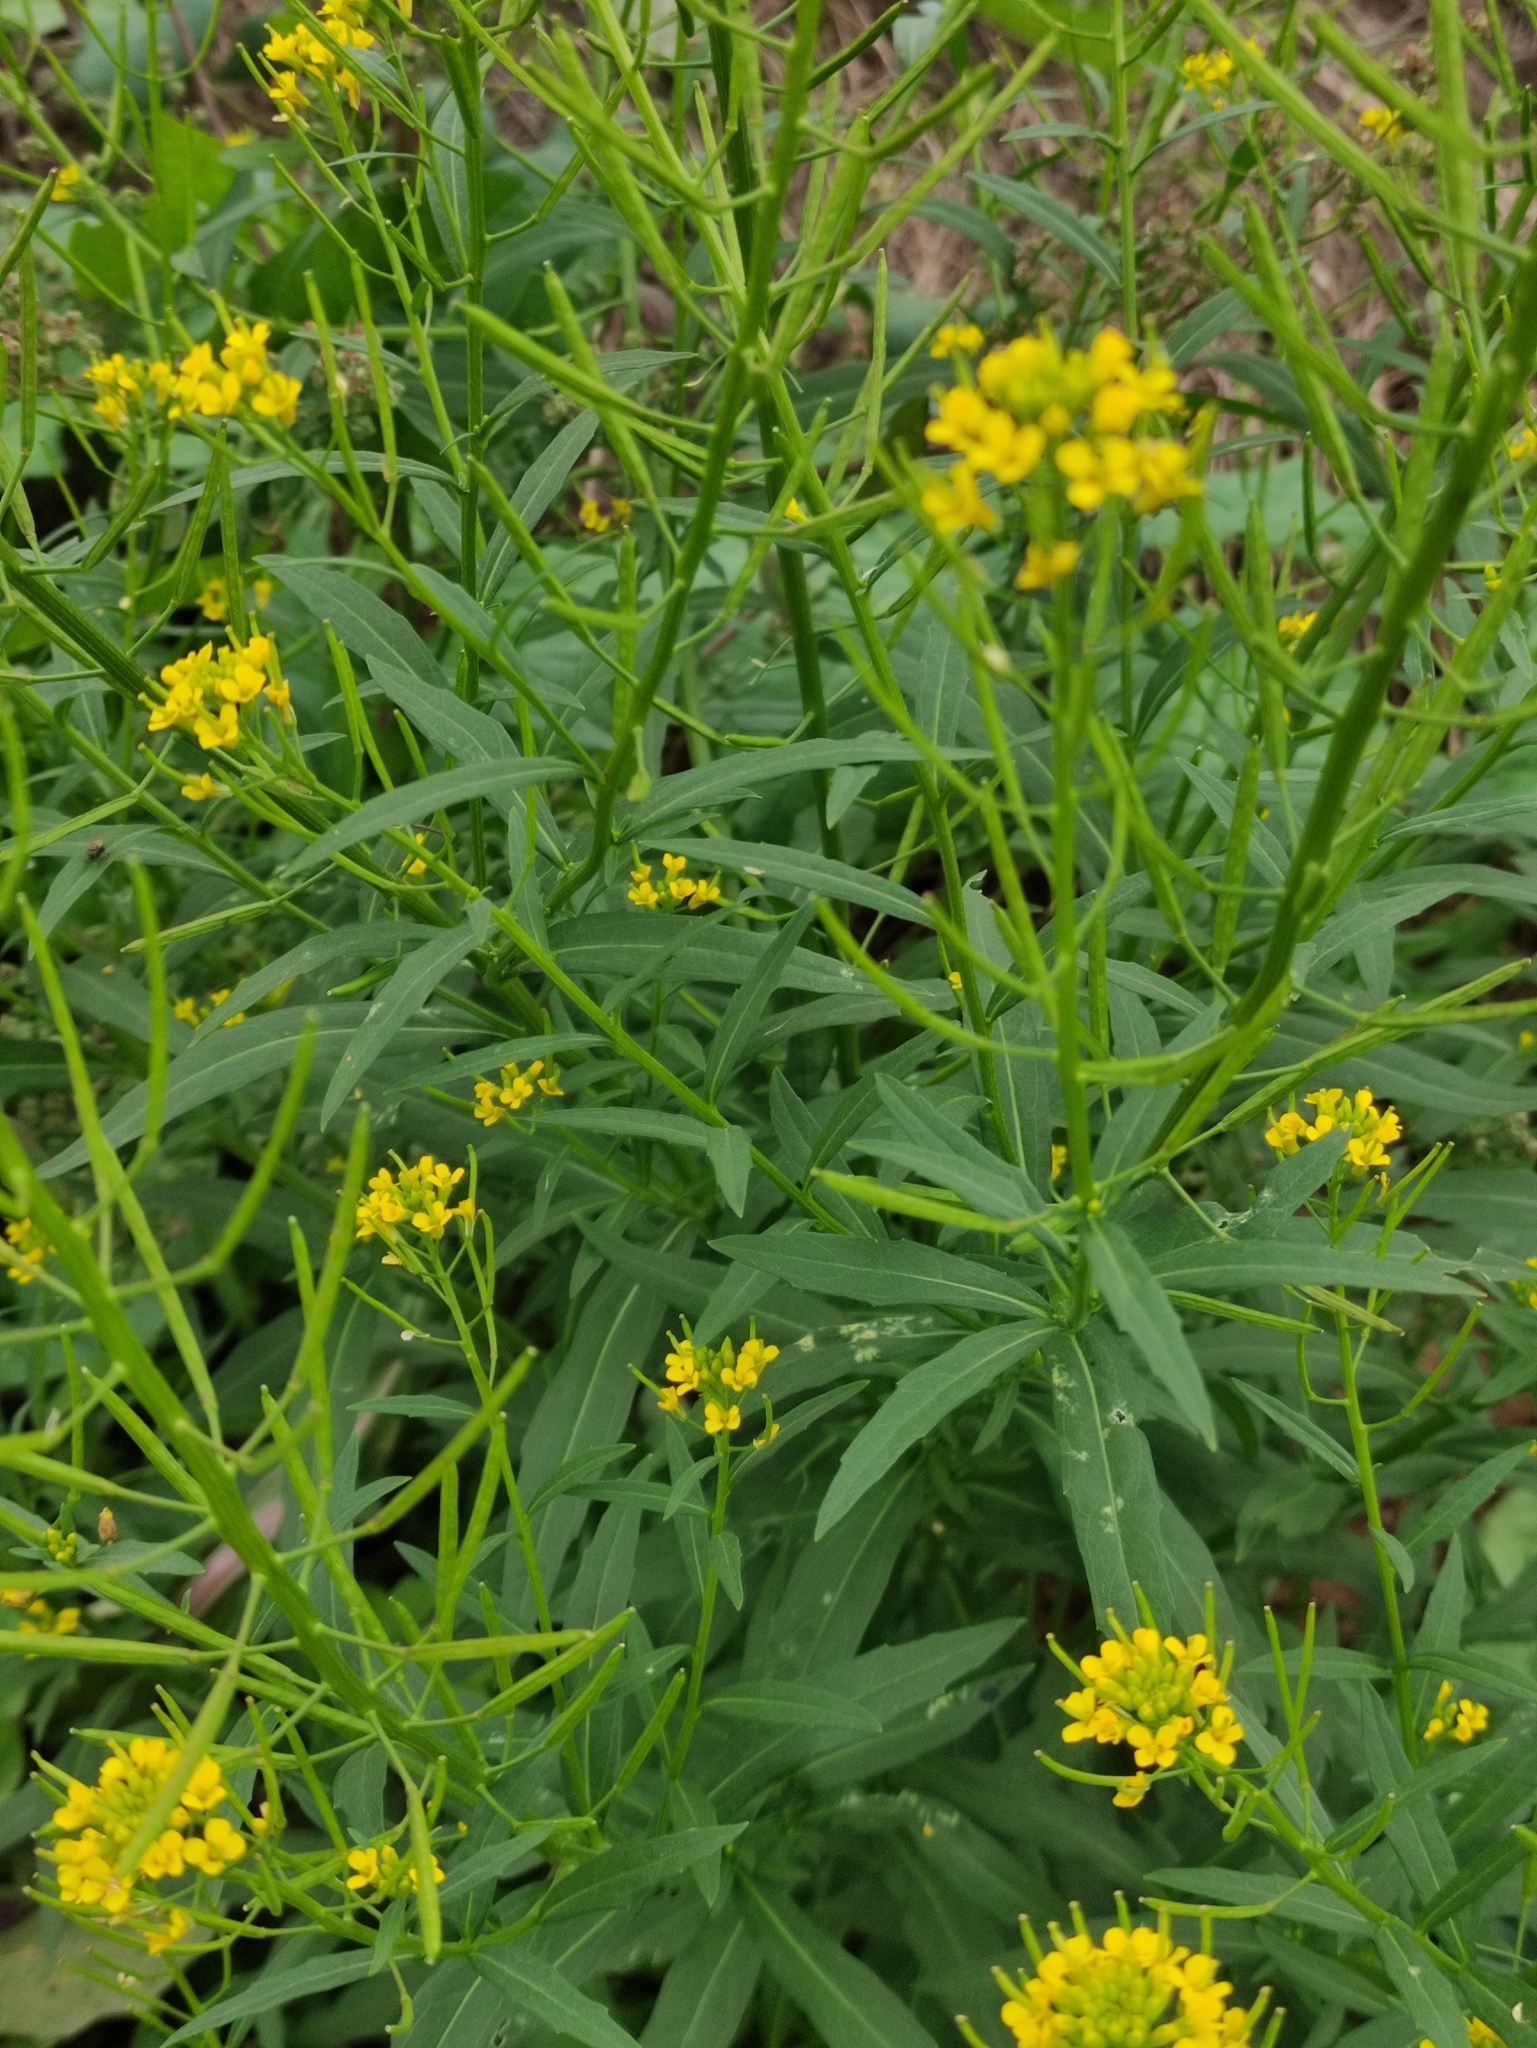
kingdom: Plantae
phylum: Tracheophyta
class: Magnoliopsida
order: Brassicales
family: Brassicaceae
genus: Erysimum
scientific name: Erysimum cheiranthoides
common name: Treacle mustard
